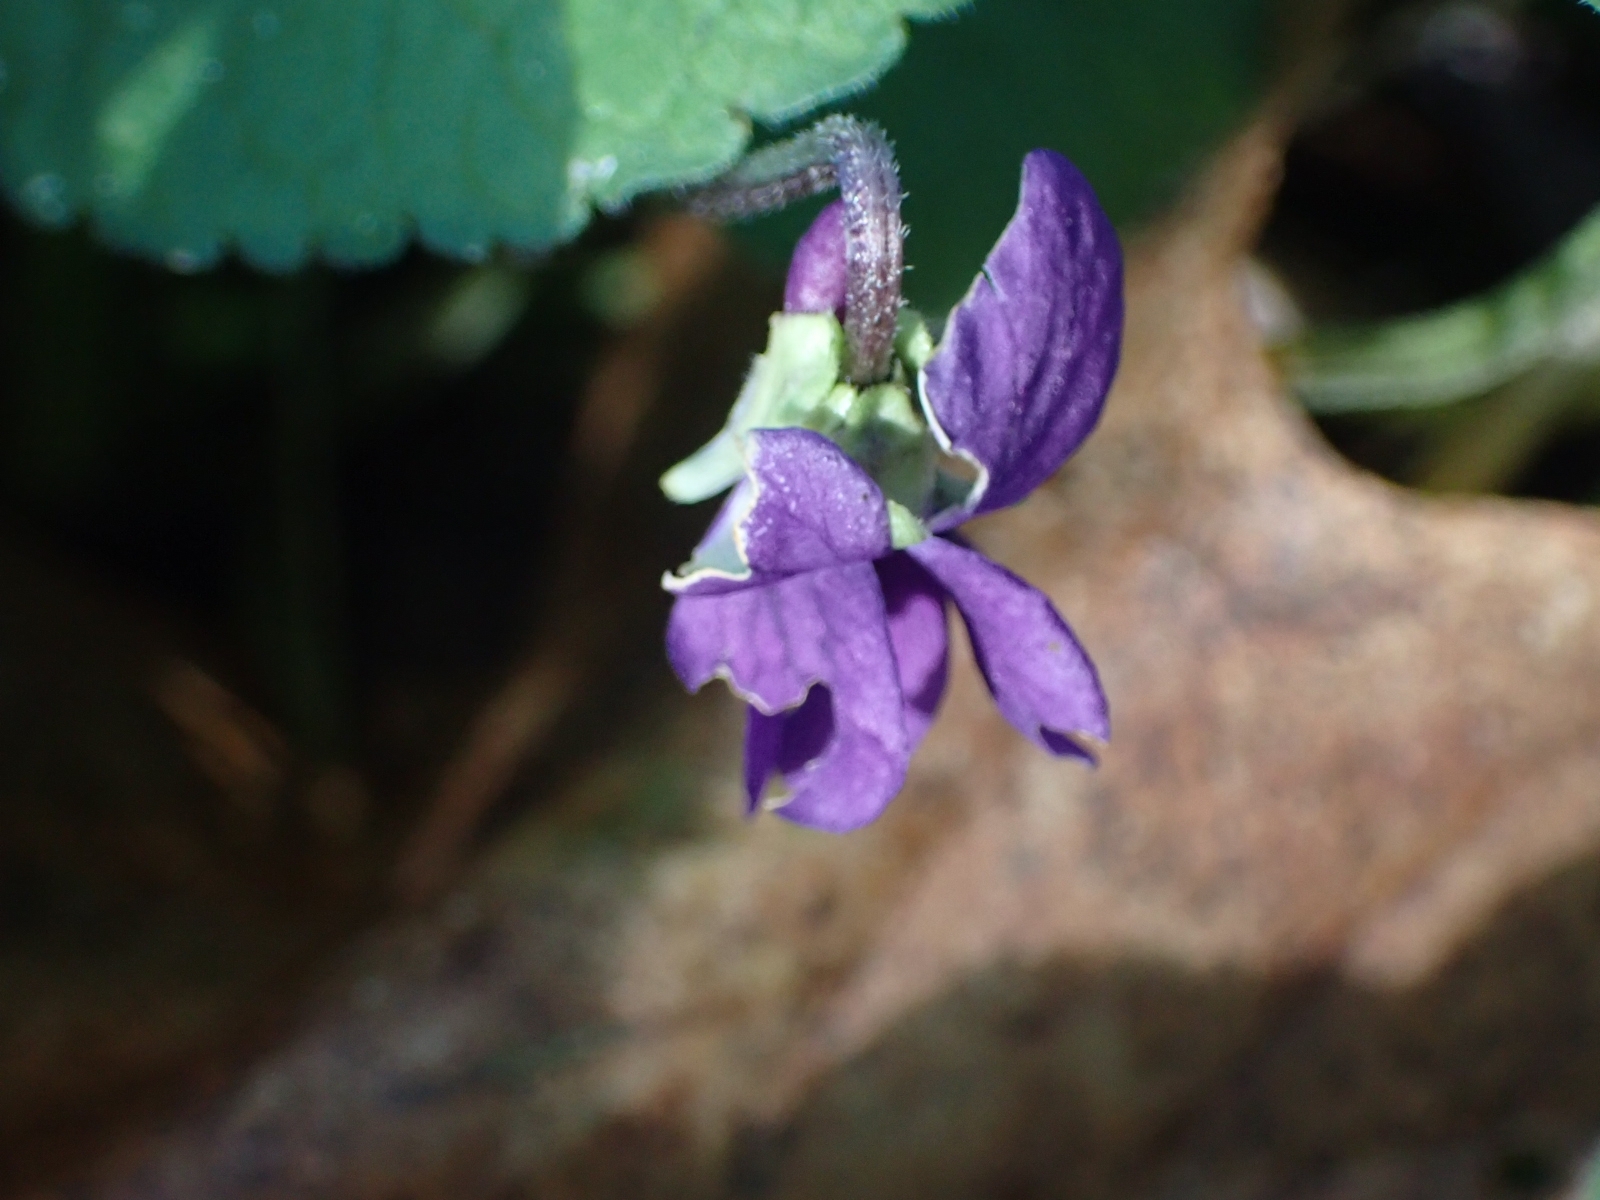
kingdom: Plantae
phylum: Tracheophyta
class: Magnoliopsida
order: Malpighiales
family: Violaceae
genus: Viola
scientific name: Viola odorata
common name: Sweet violet
